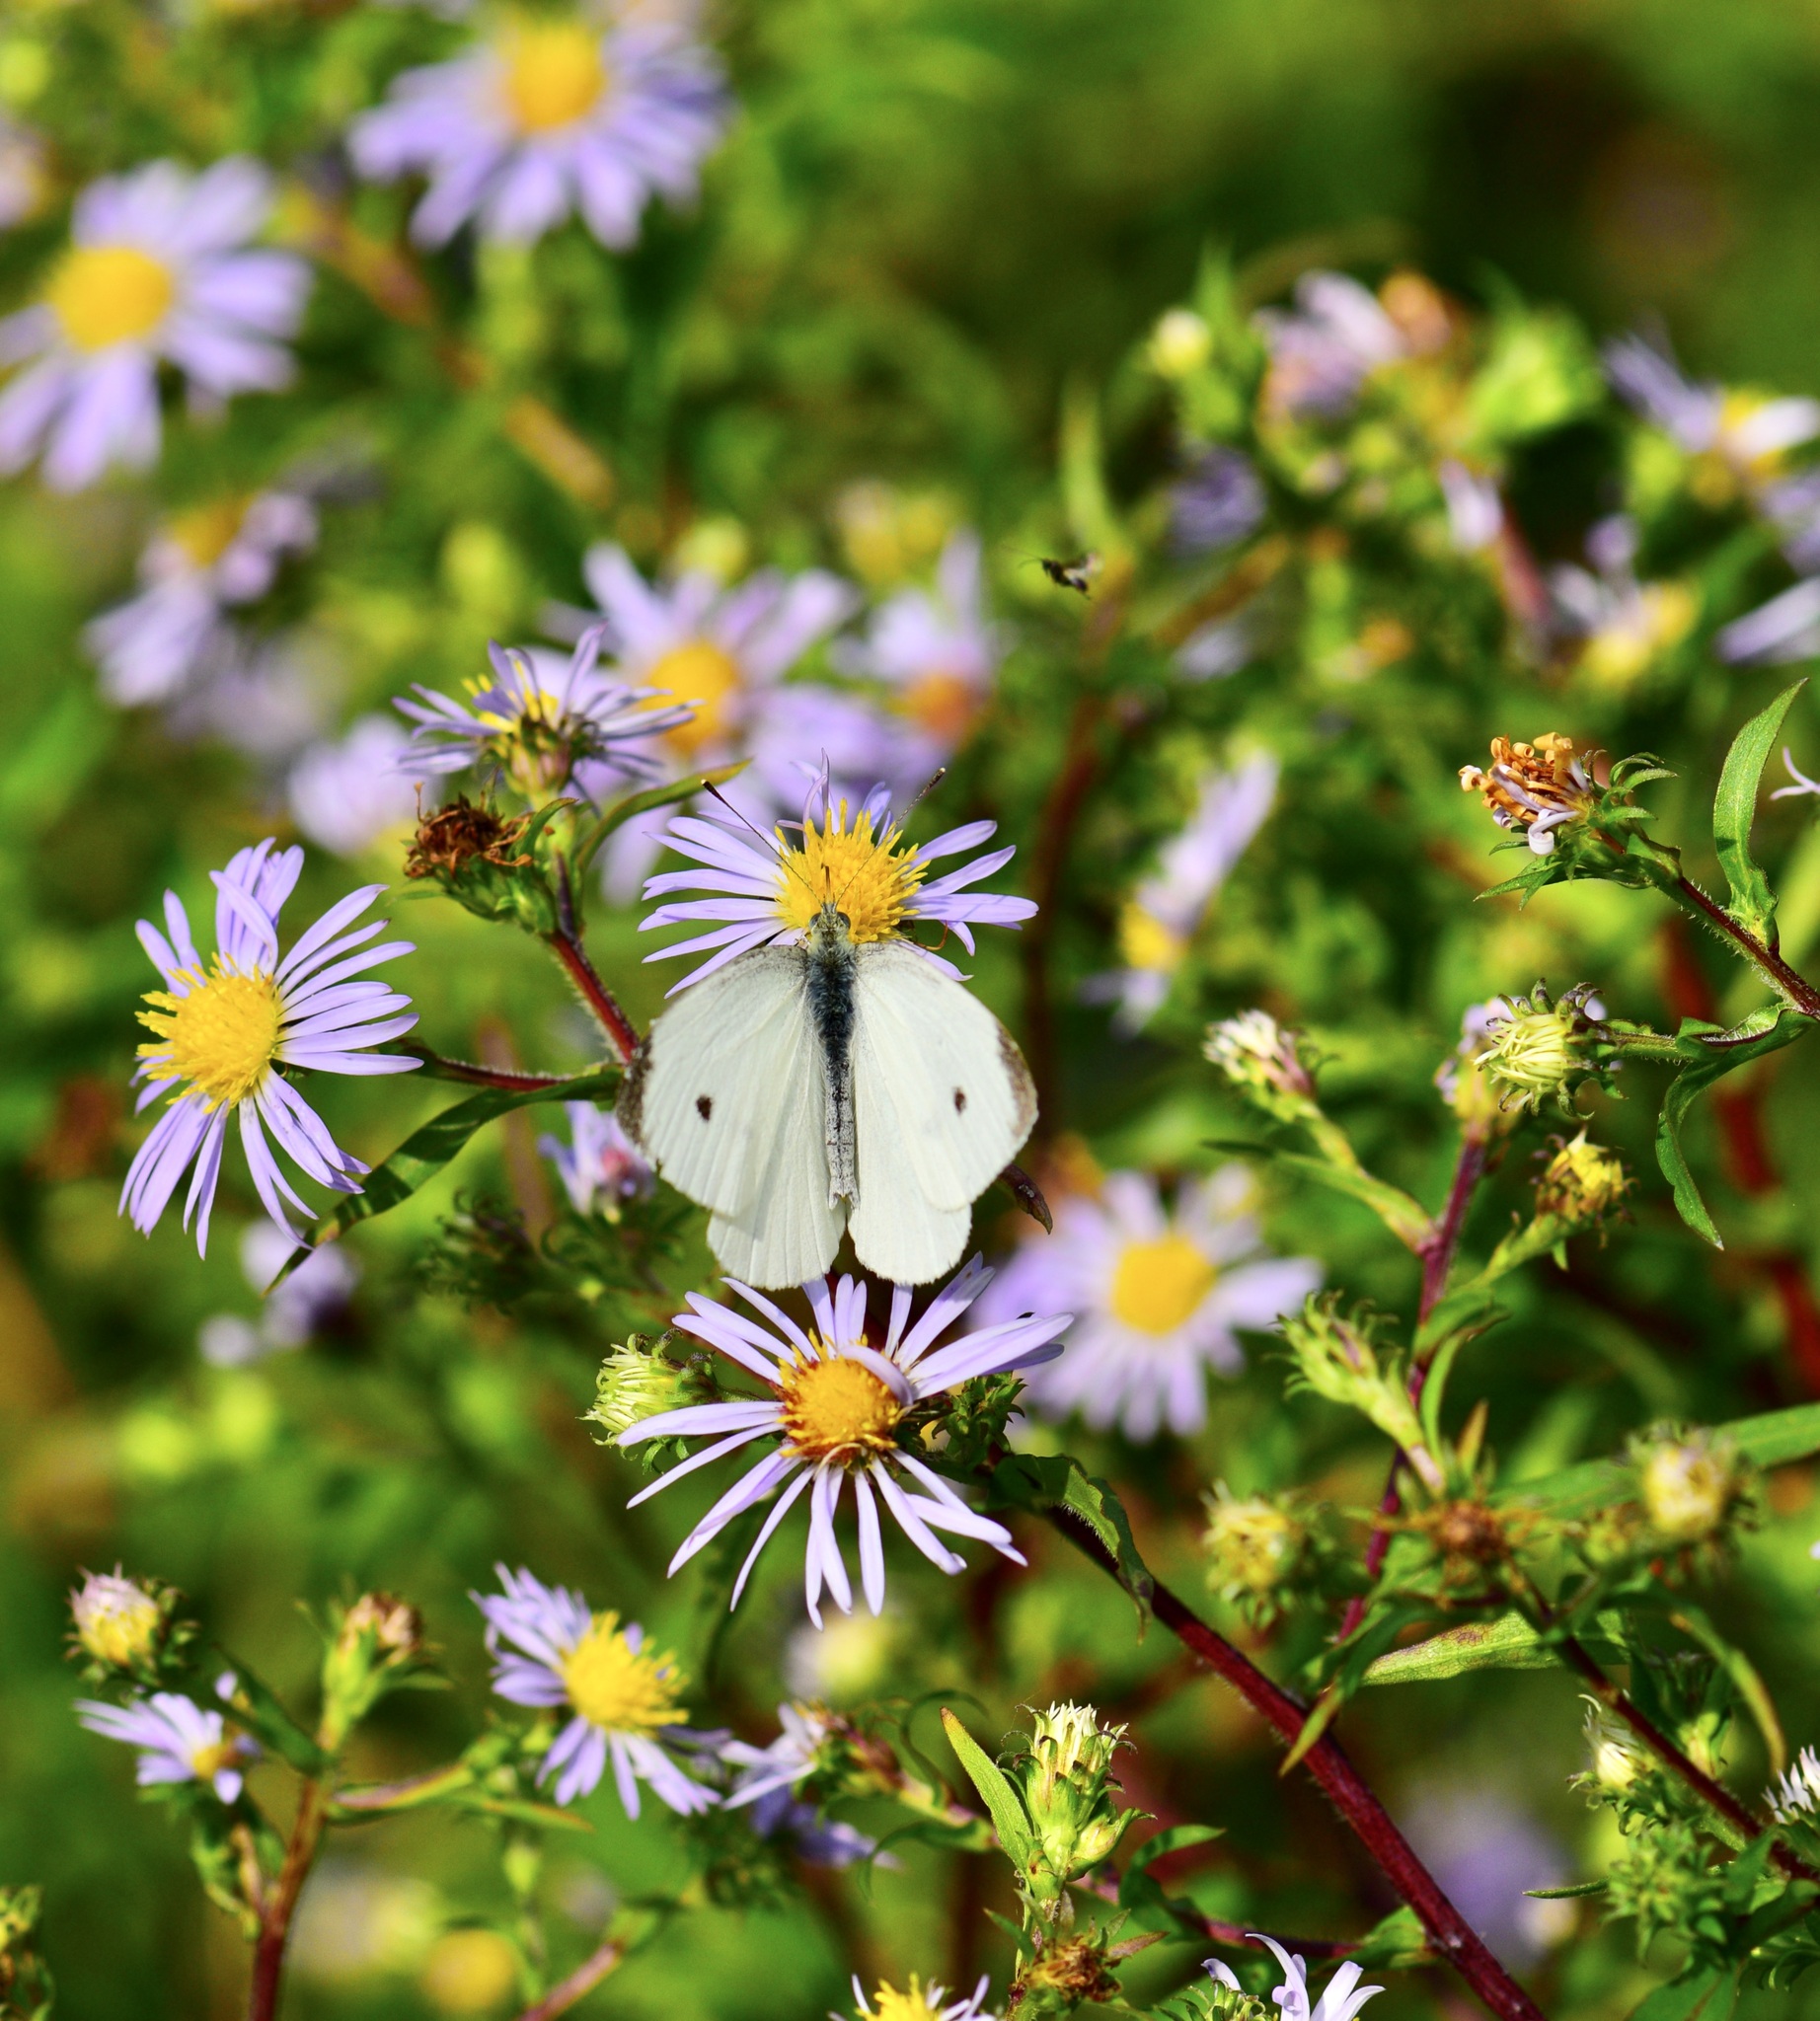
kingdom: Animalia
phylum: Arthropoda
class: Insecta
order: Lepidoptera
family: Pieridae
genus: Pieris
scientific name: Pieris rapae
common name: Small white
